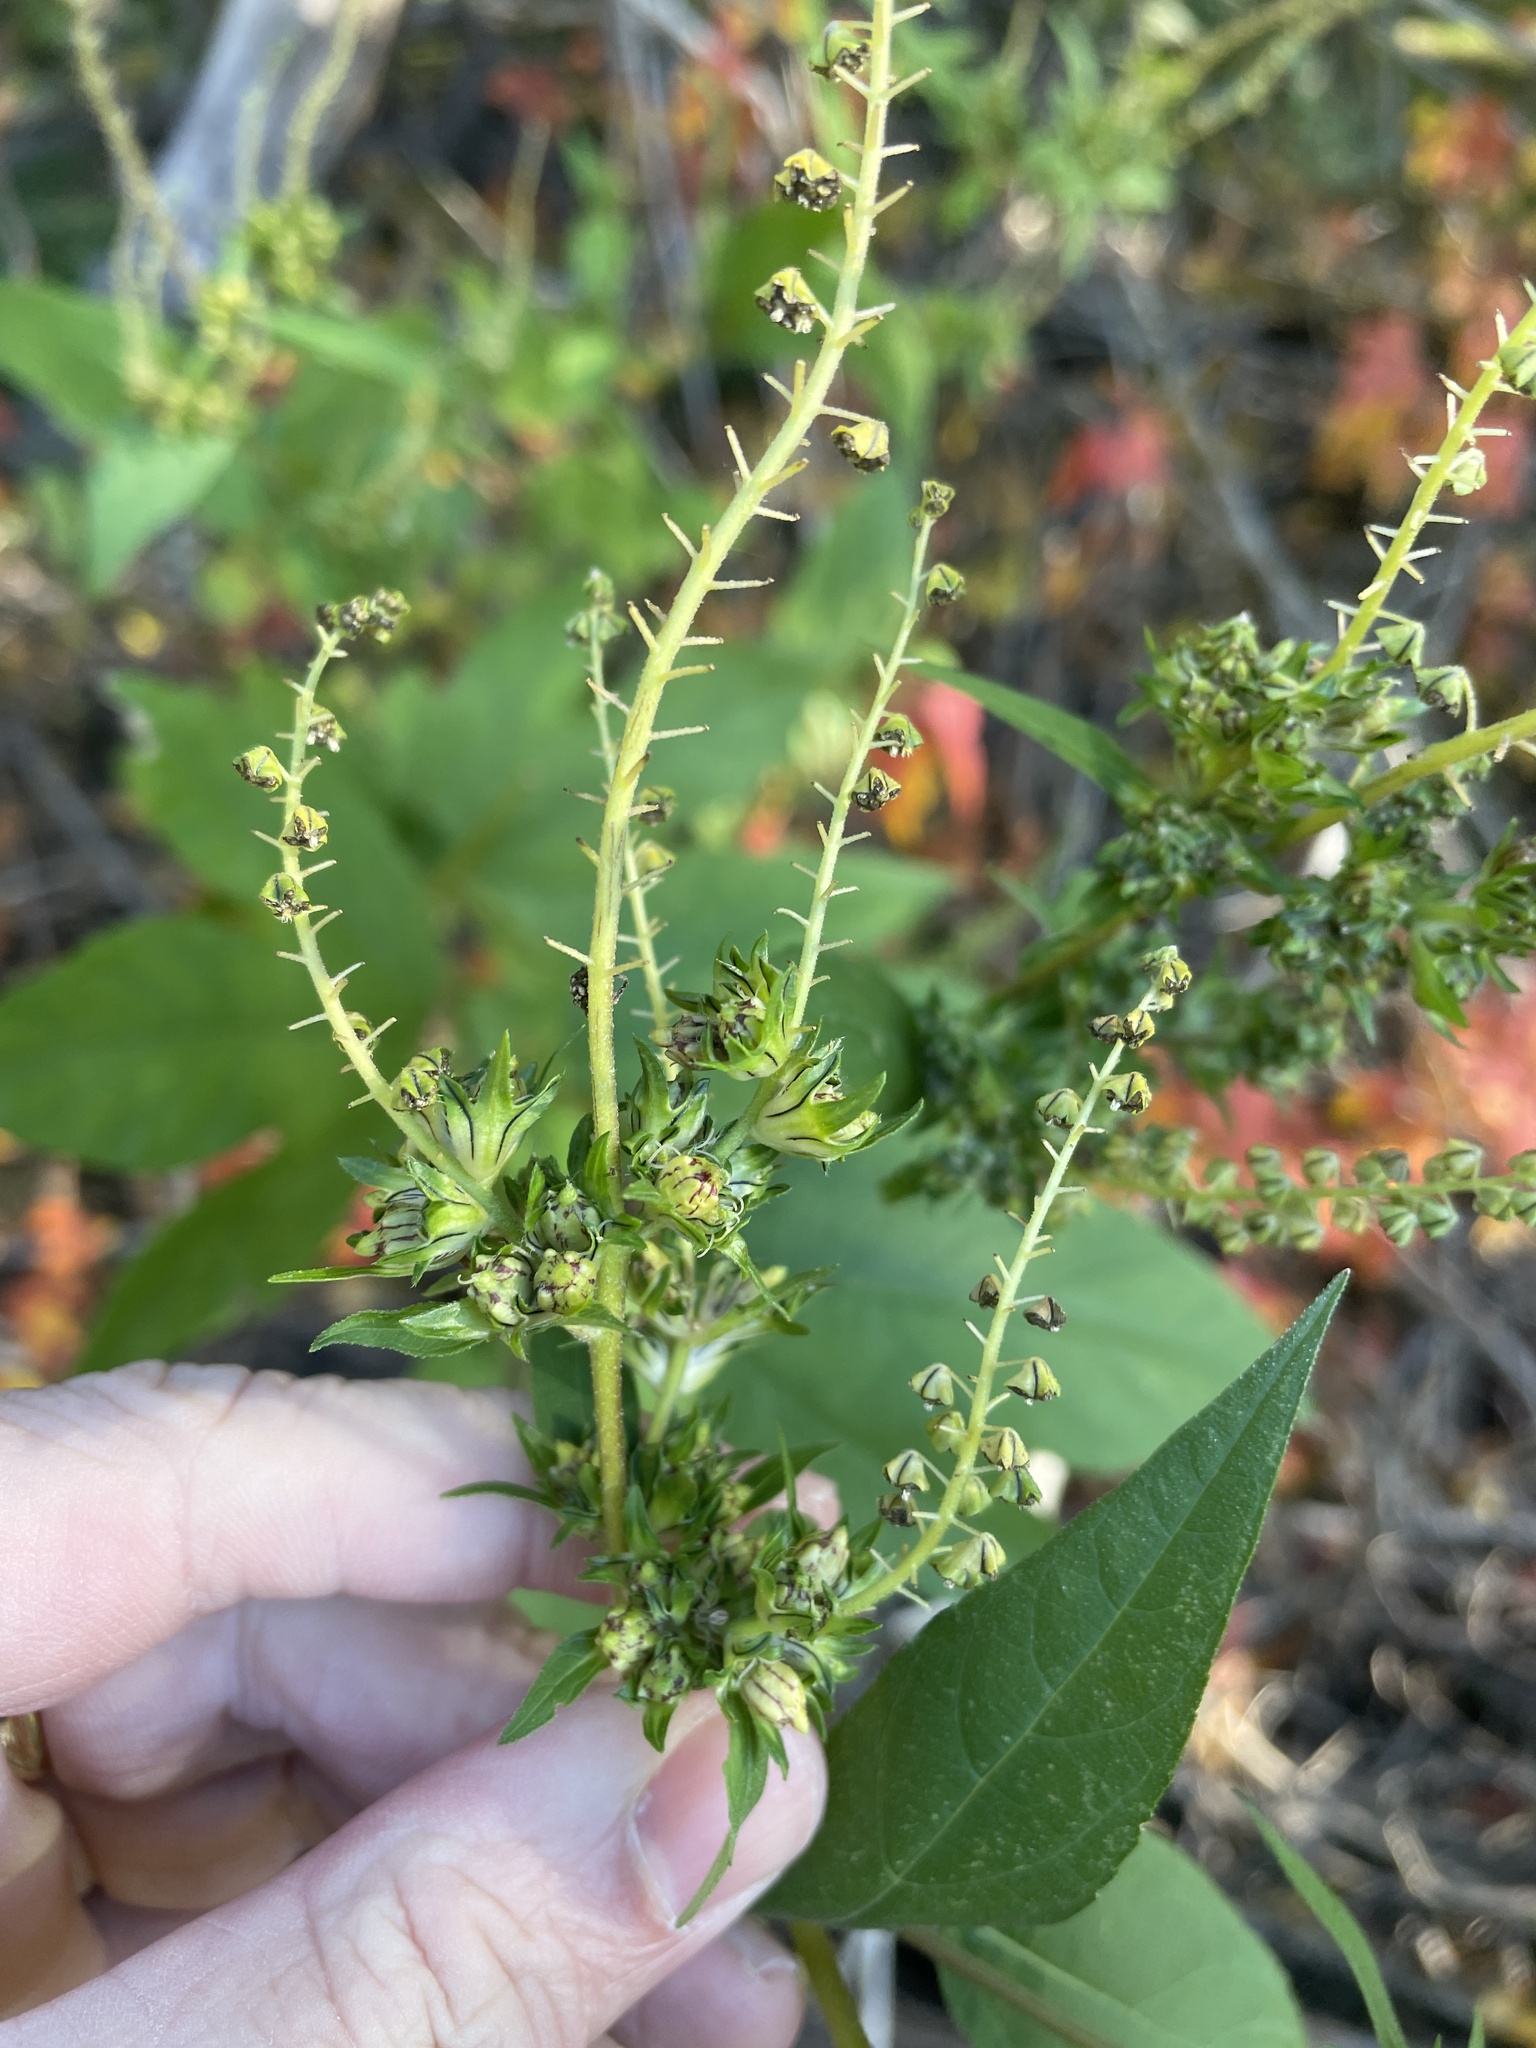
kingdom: Plantae
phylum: Tracheophyta
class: Magnoliopsida
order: Asterales
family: Asteraceae
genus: Ambrosia
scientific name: Ambrosia trifida
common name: Giant ragweed
